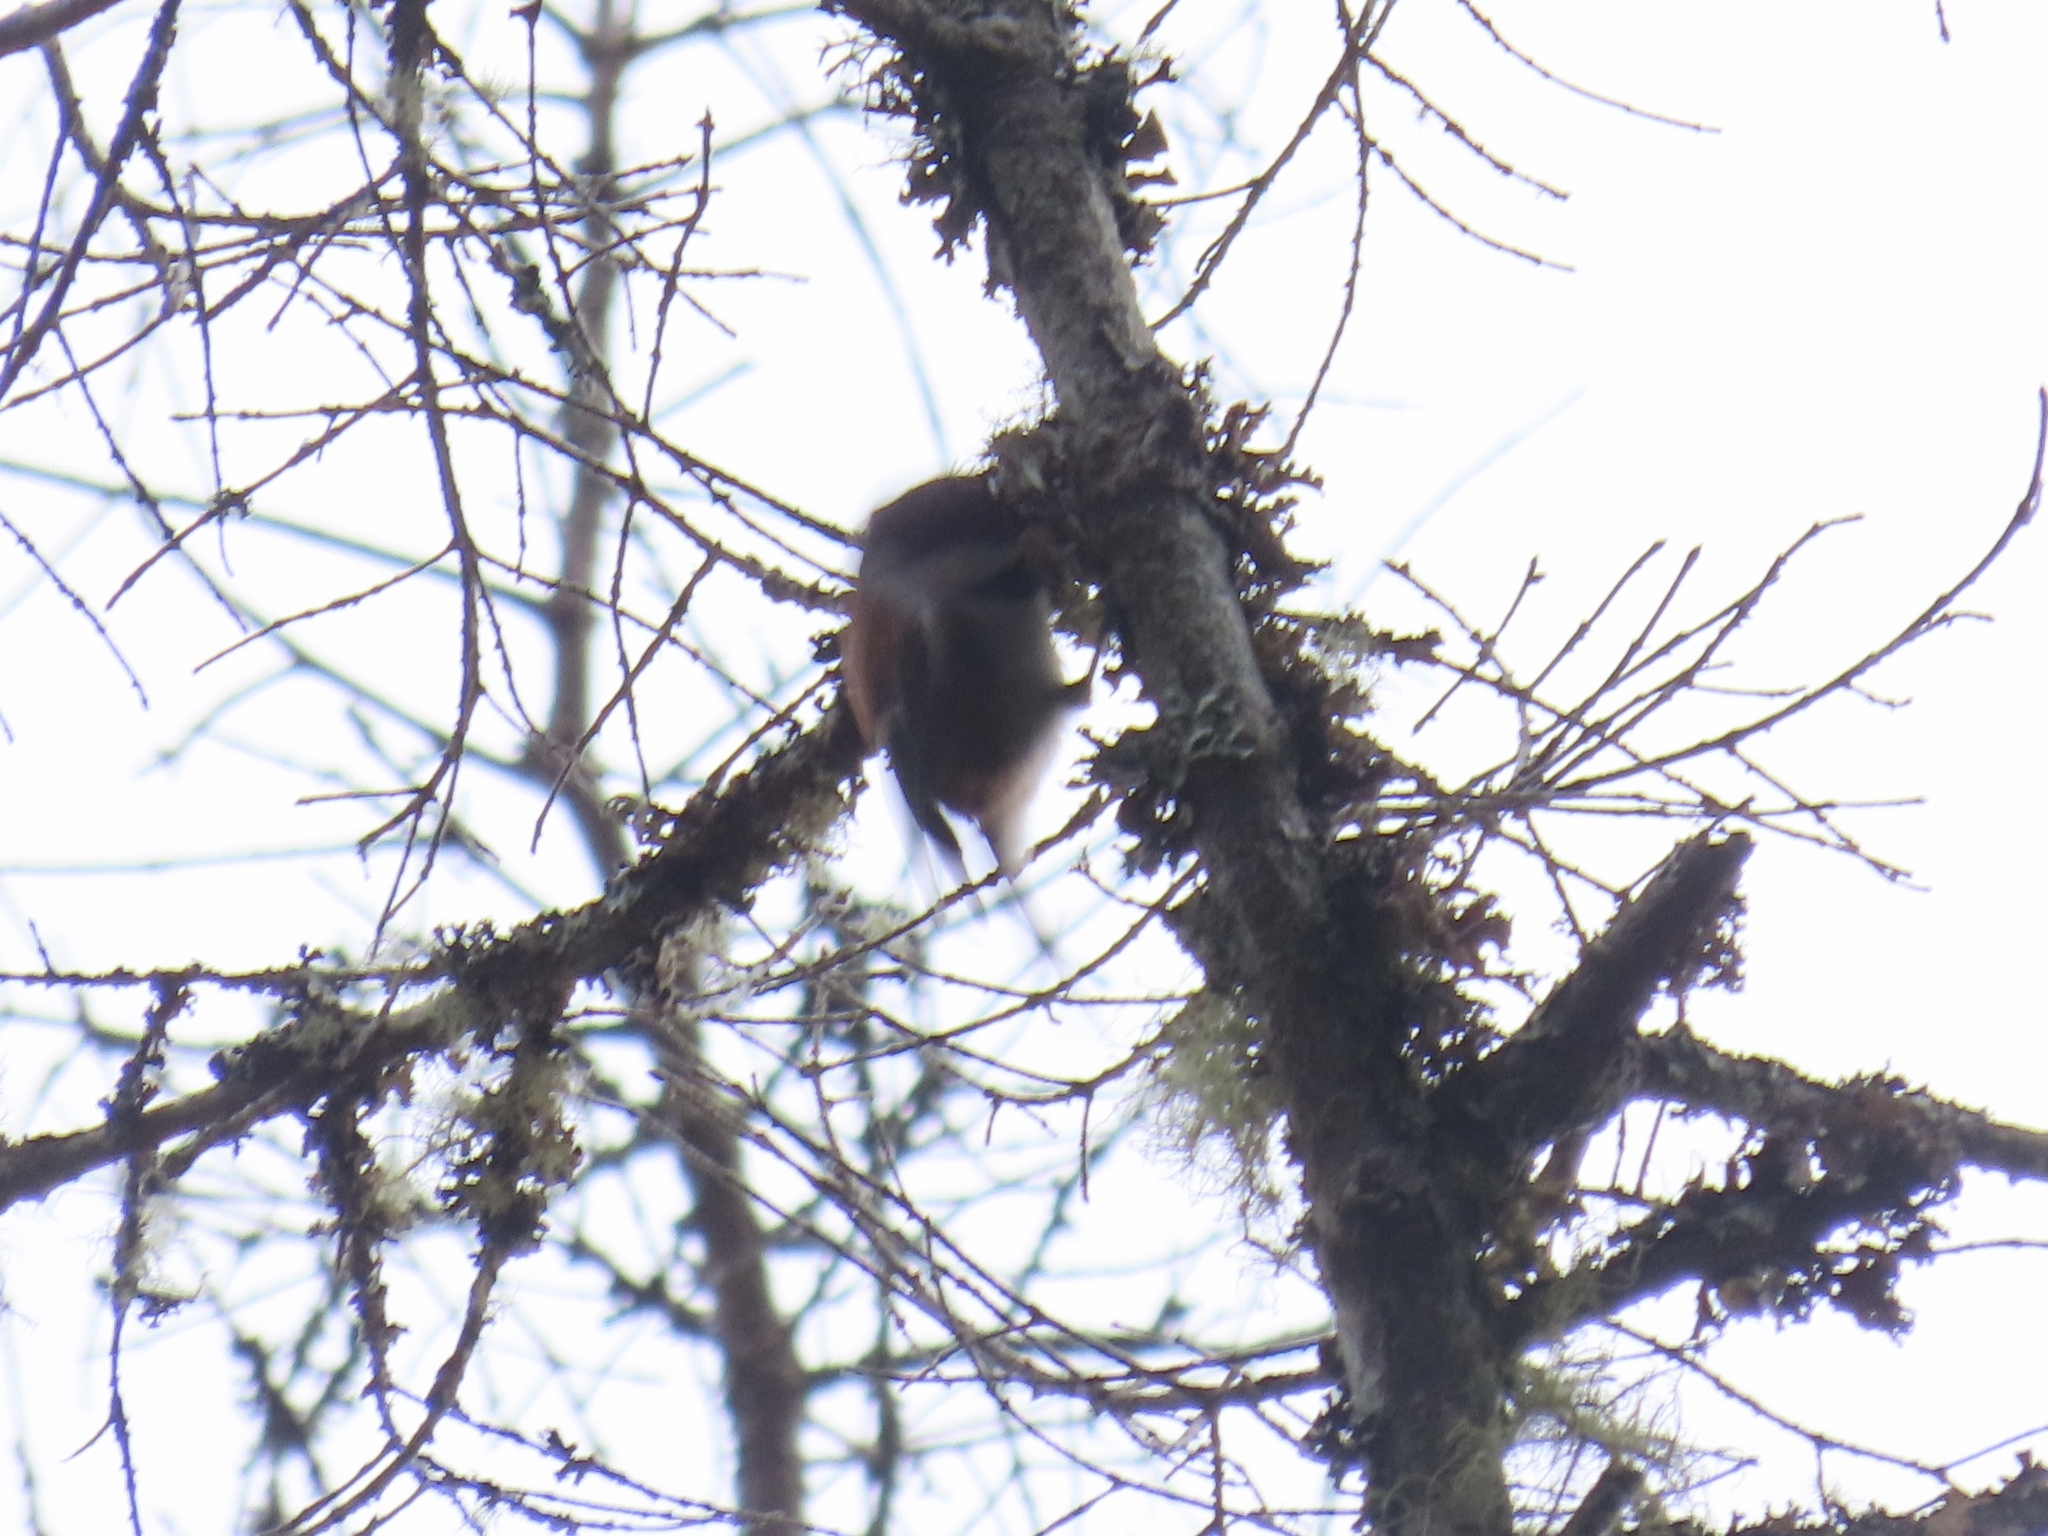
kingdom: Animalia
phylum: Chordata
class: Aves
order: Passeriformes
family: Paridae
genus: Poecile
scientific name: Poecile rufescens
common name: Chestnut-backed chickadee
